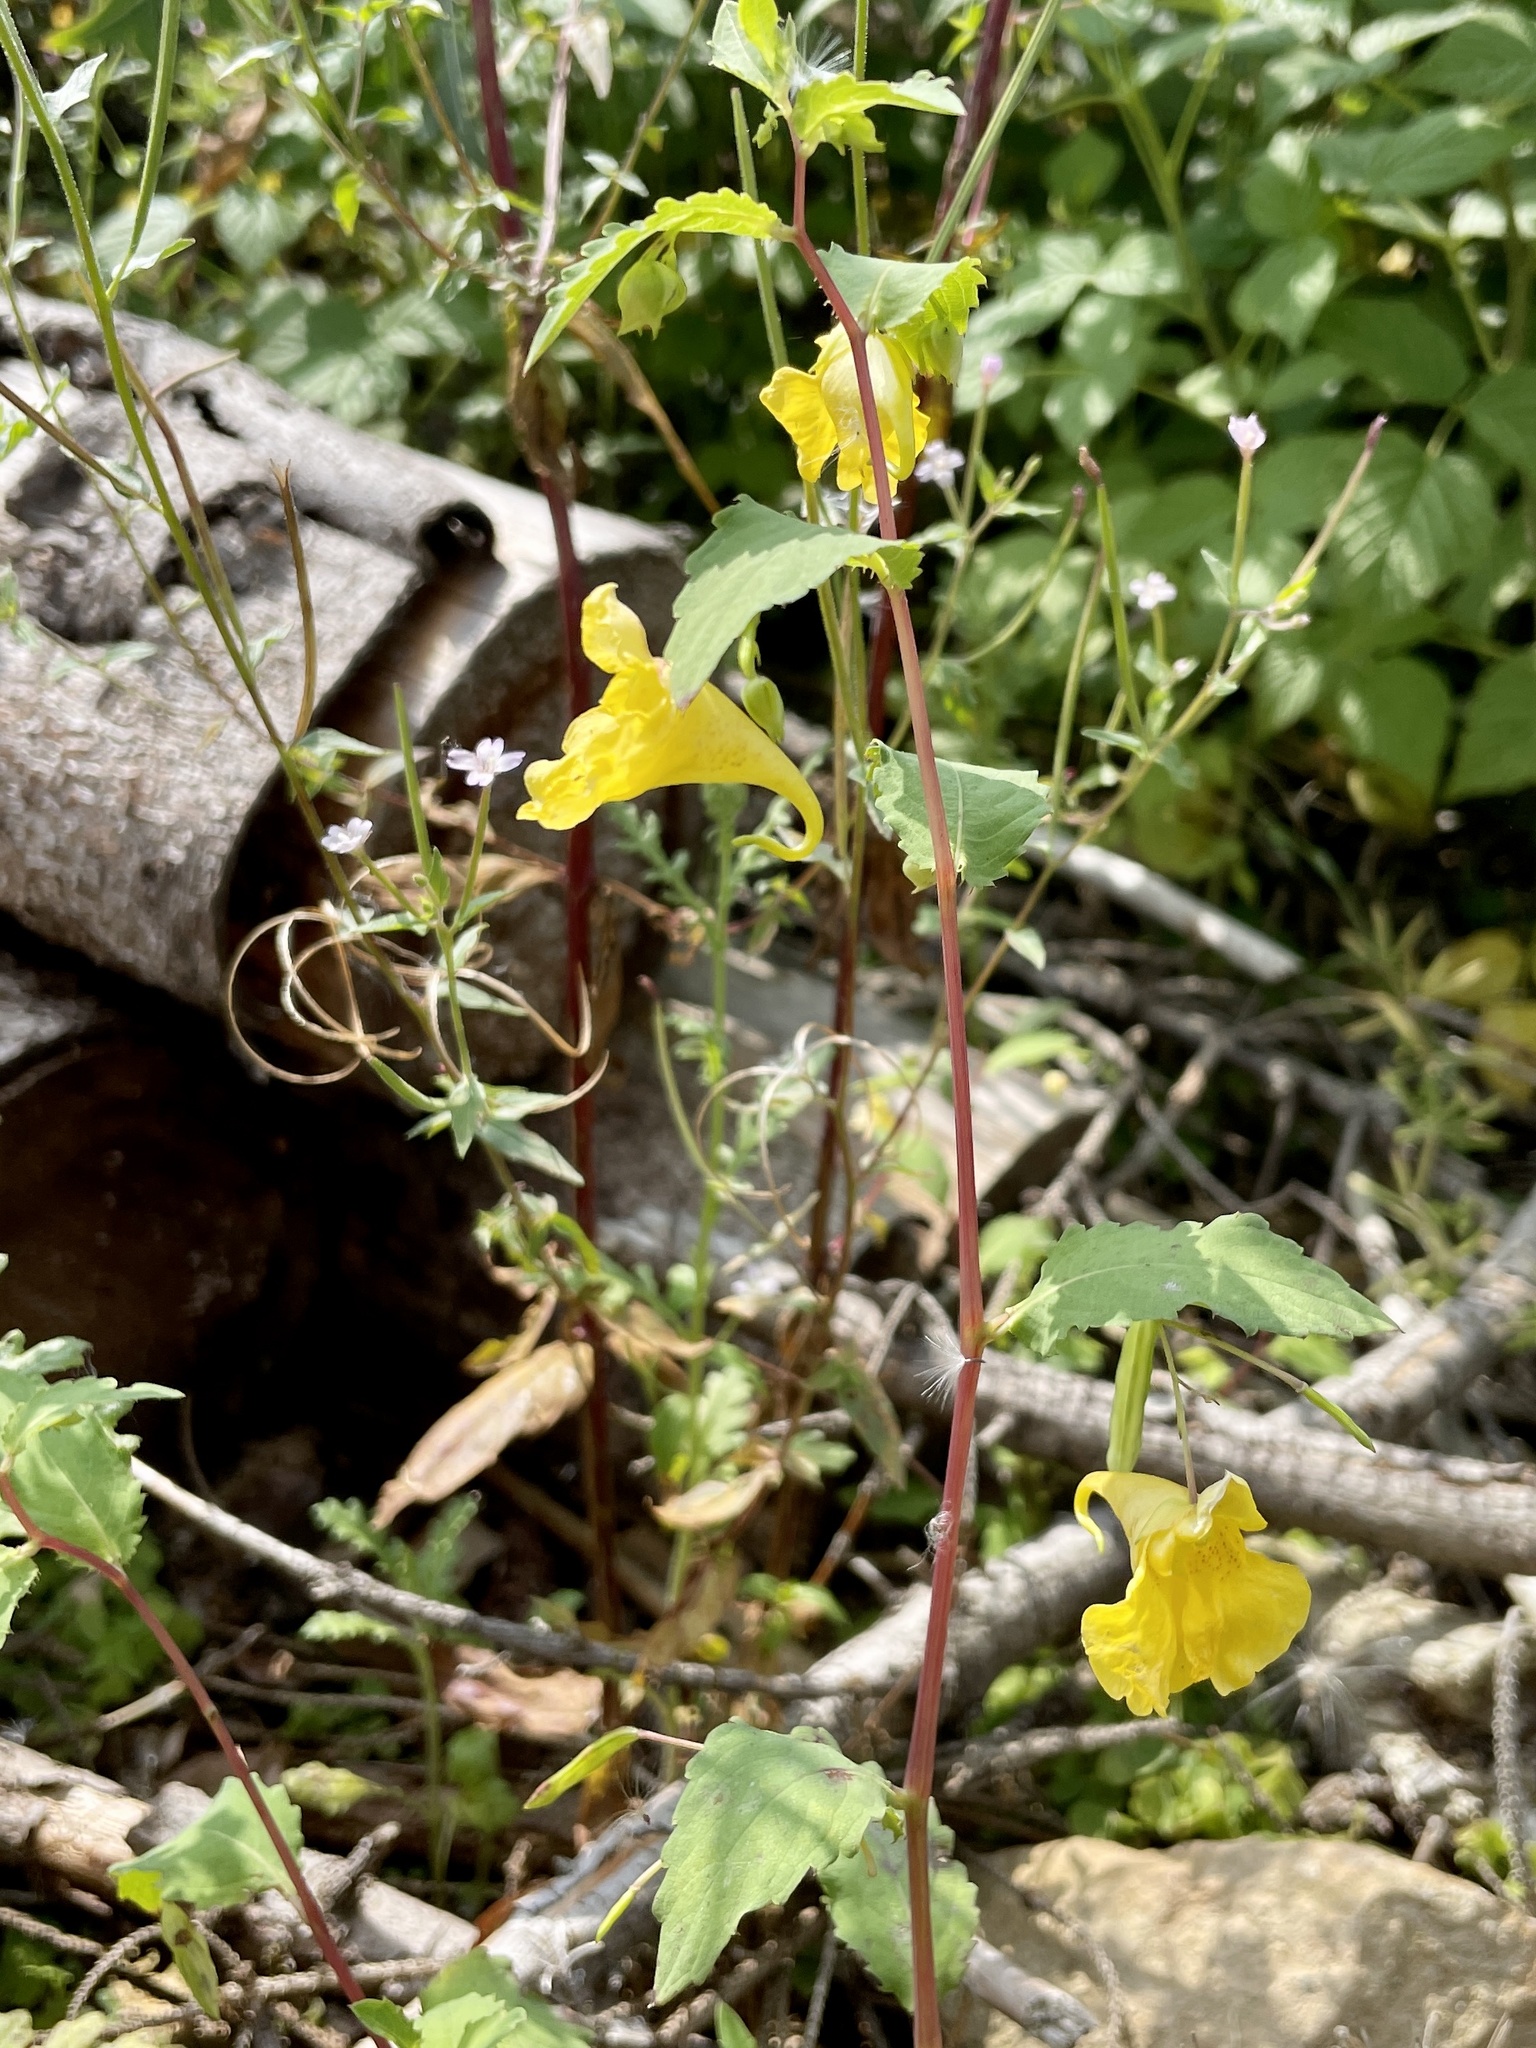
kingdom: Plantae
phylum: Tracheophyta
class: Magnoliopsida
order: Ericales
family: Balsaminaceae
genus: Impatiens
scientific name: Impatiens noli-tangere
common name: Touch-me-not balsam
